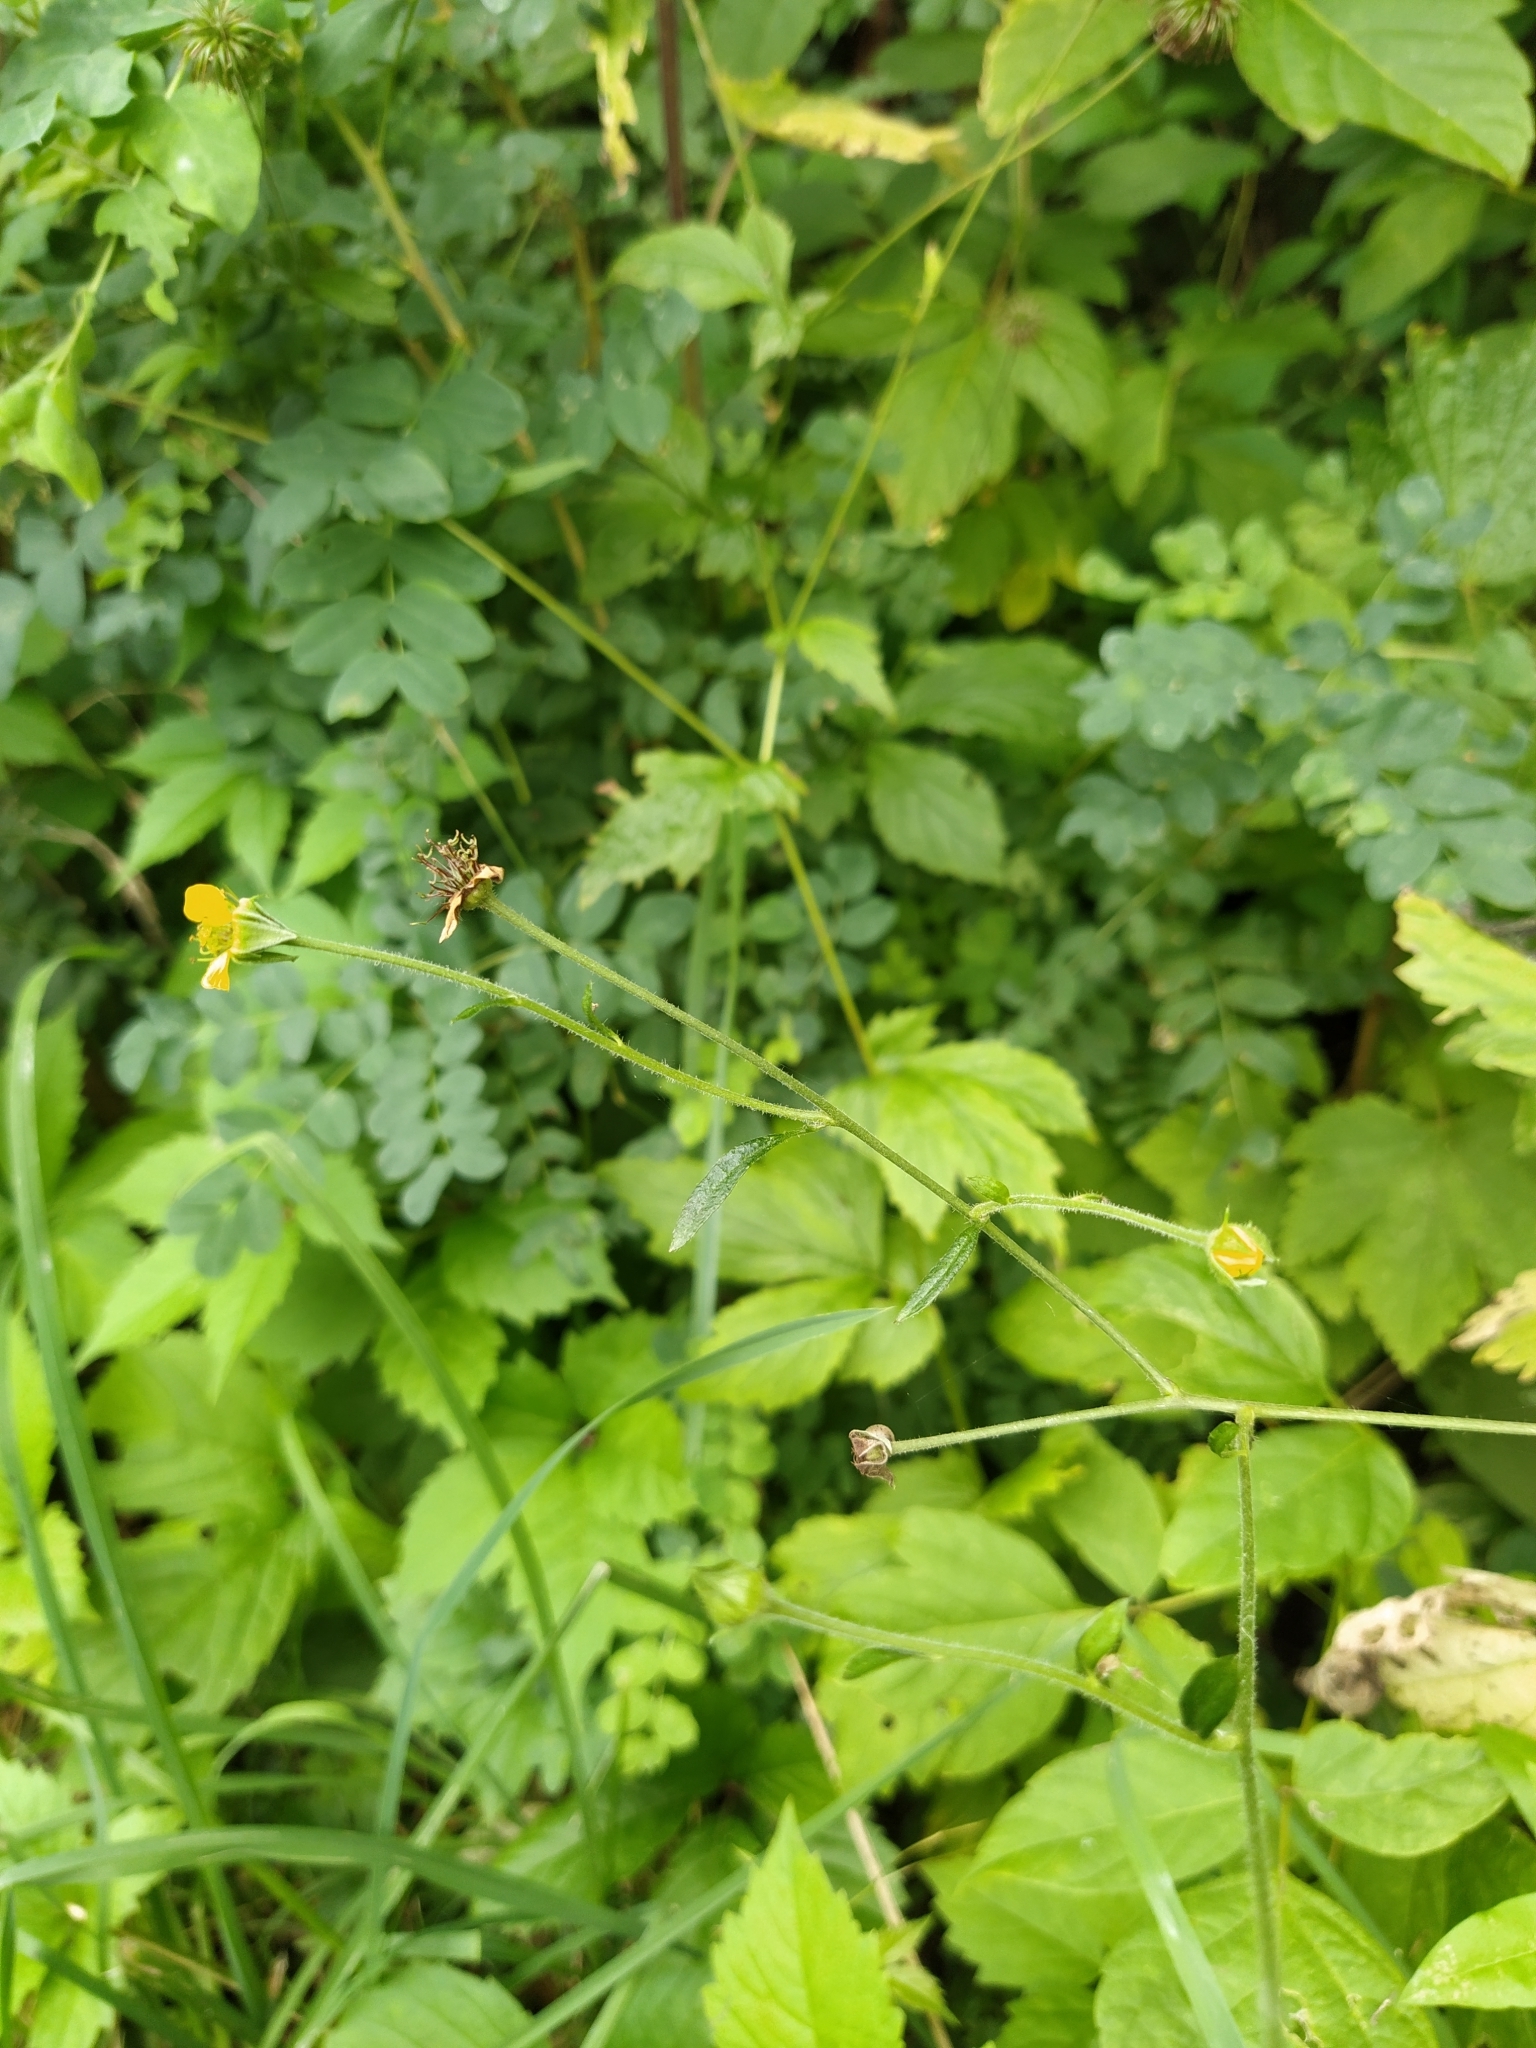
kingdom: Plantae
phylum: Tracheophyta
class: Magnoliopsida
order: Rosales
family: Rosaceae
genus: Geum
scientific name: Geum urbanum
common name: Wood avens
